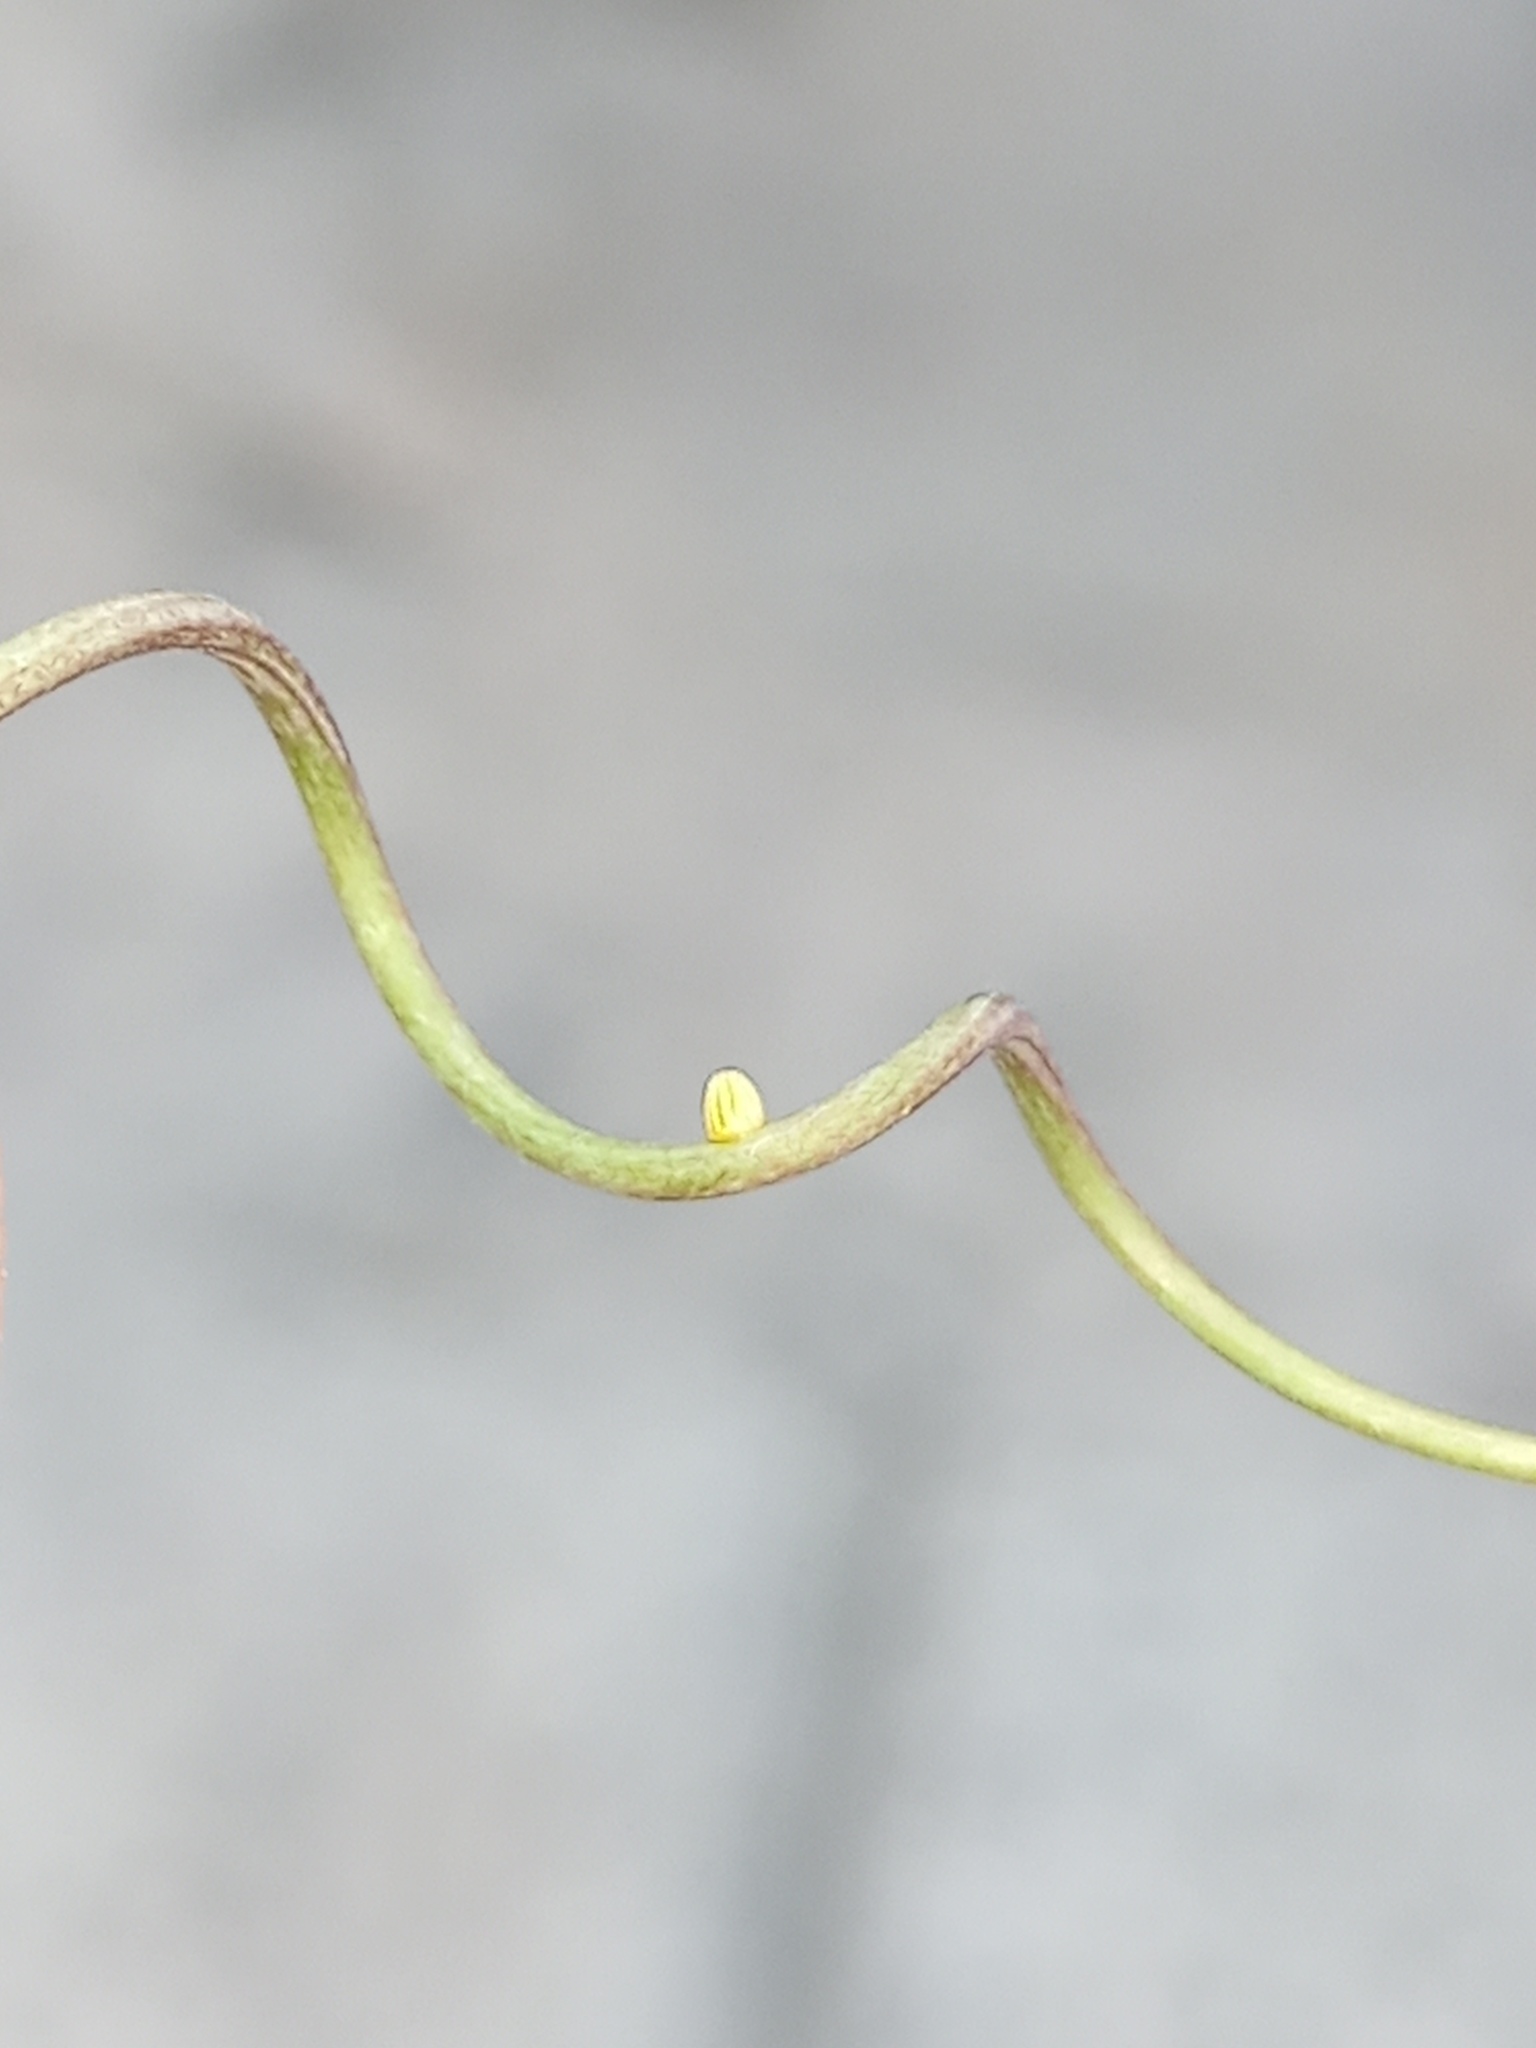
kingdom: Animalia
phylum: Arthropoda
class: Insecta
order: Lepidoptera
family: Nymphalidae
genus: Dione
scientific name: Dione vanillae
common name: Gulf fritillary
